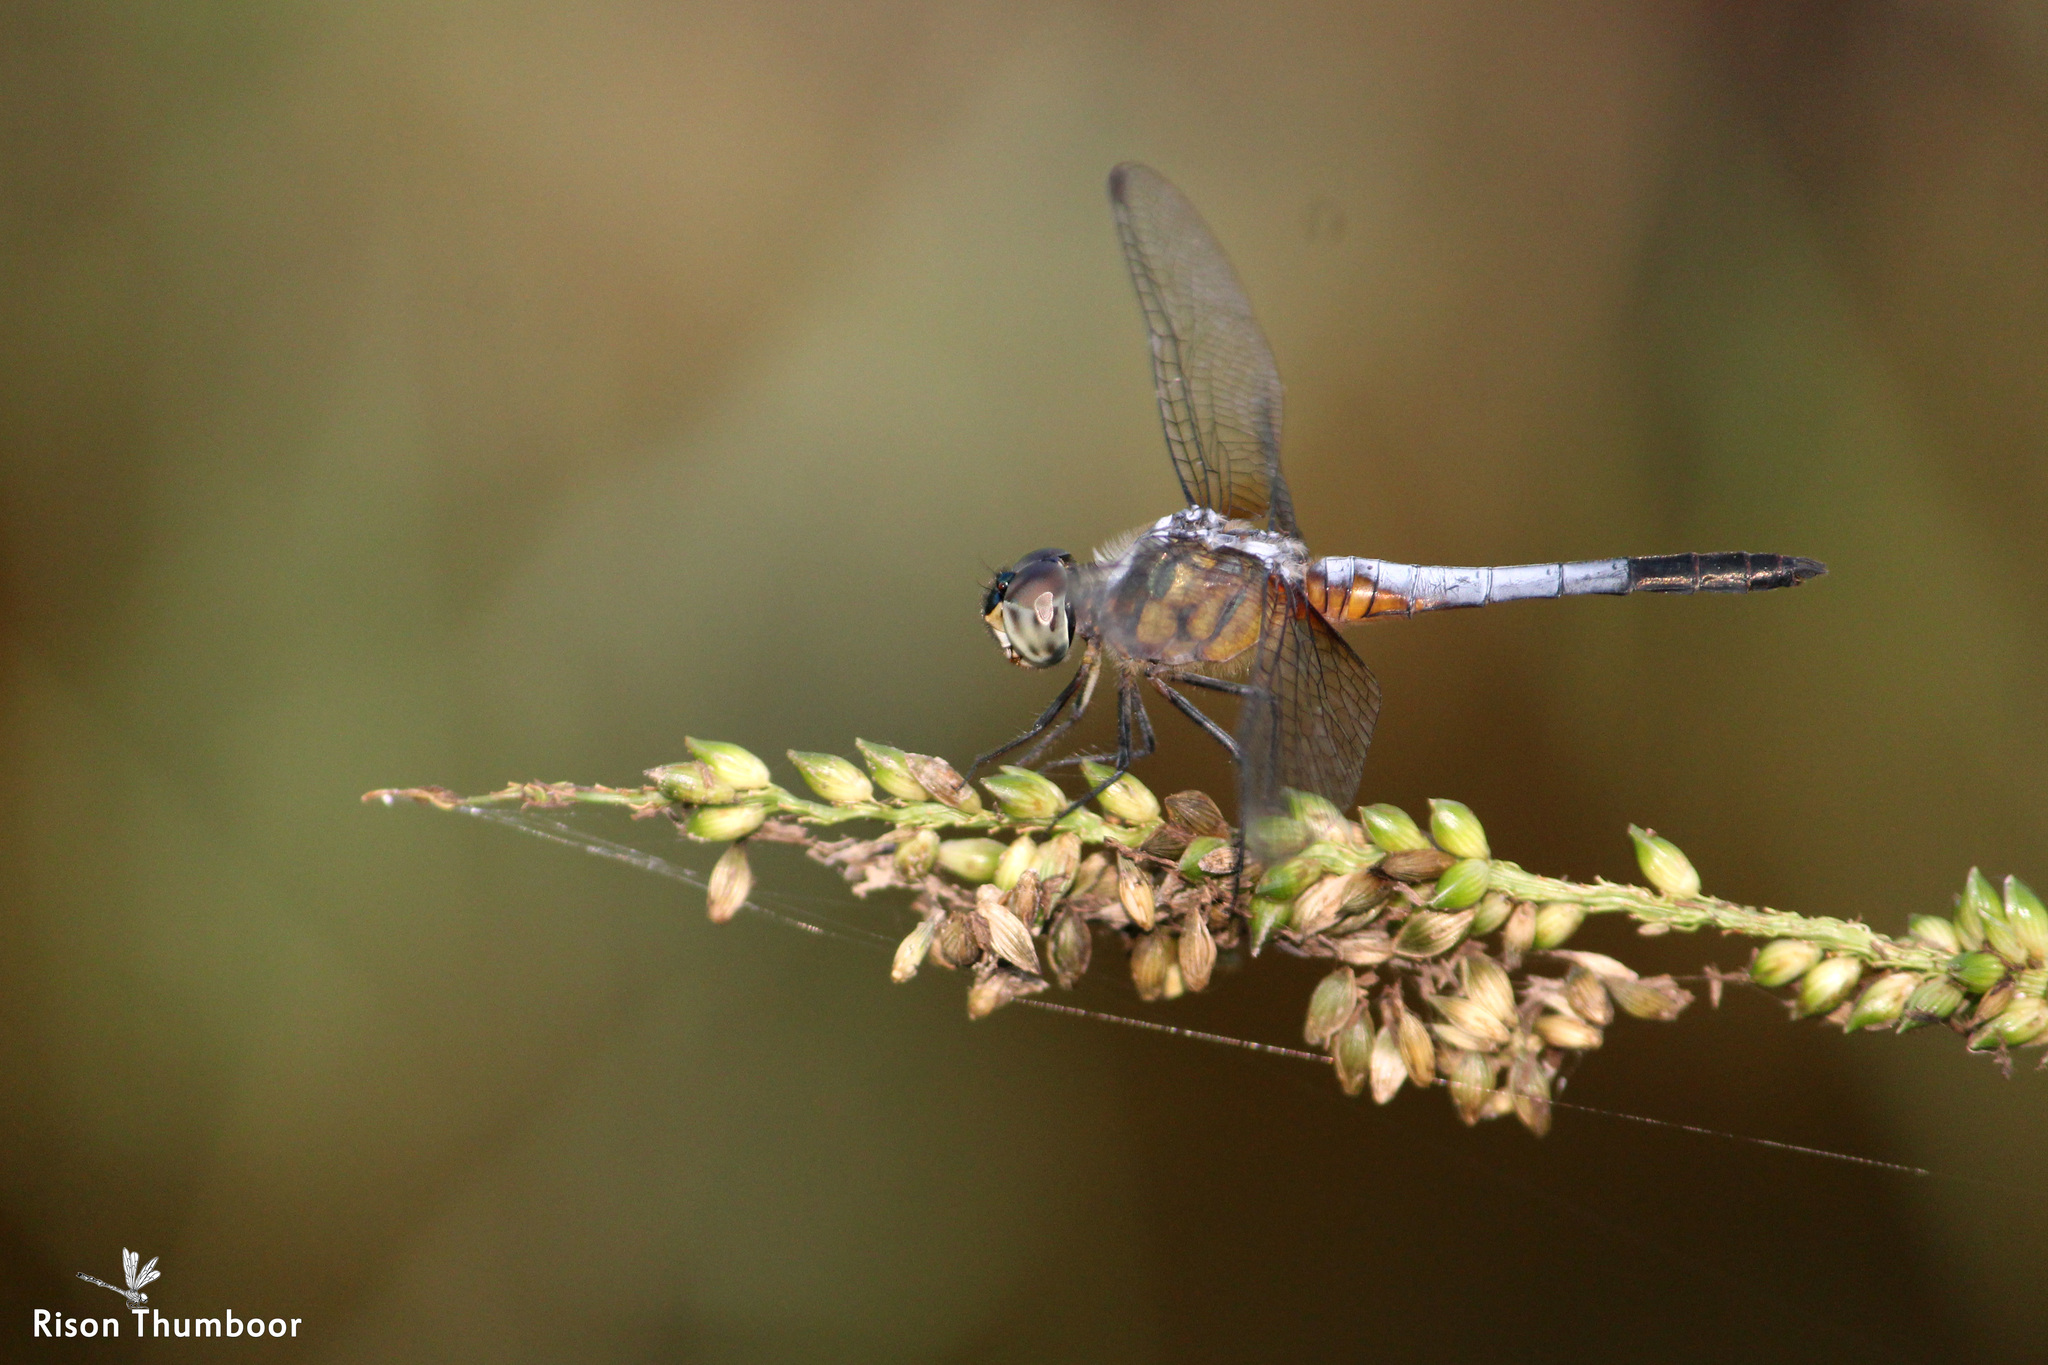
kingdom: Animalia
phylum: Arthropoda
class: Insecta
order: Odonata
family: Libellulidae
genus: Brachydiplax
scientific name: Brachydiplax chalybea
